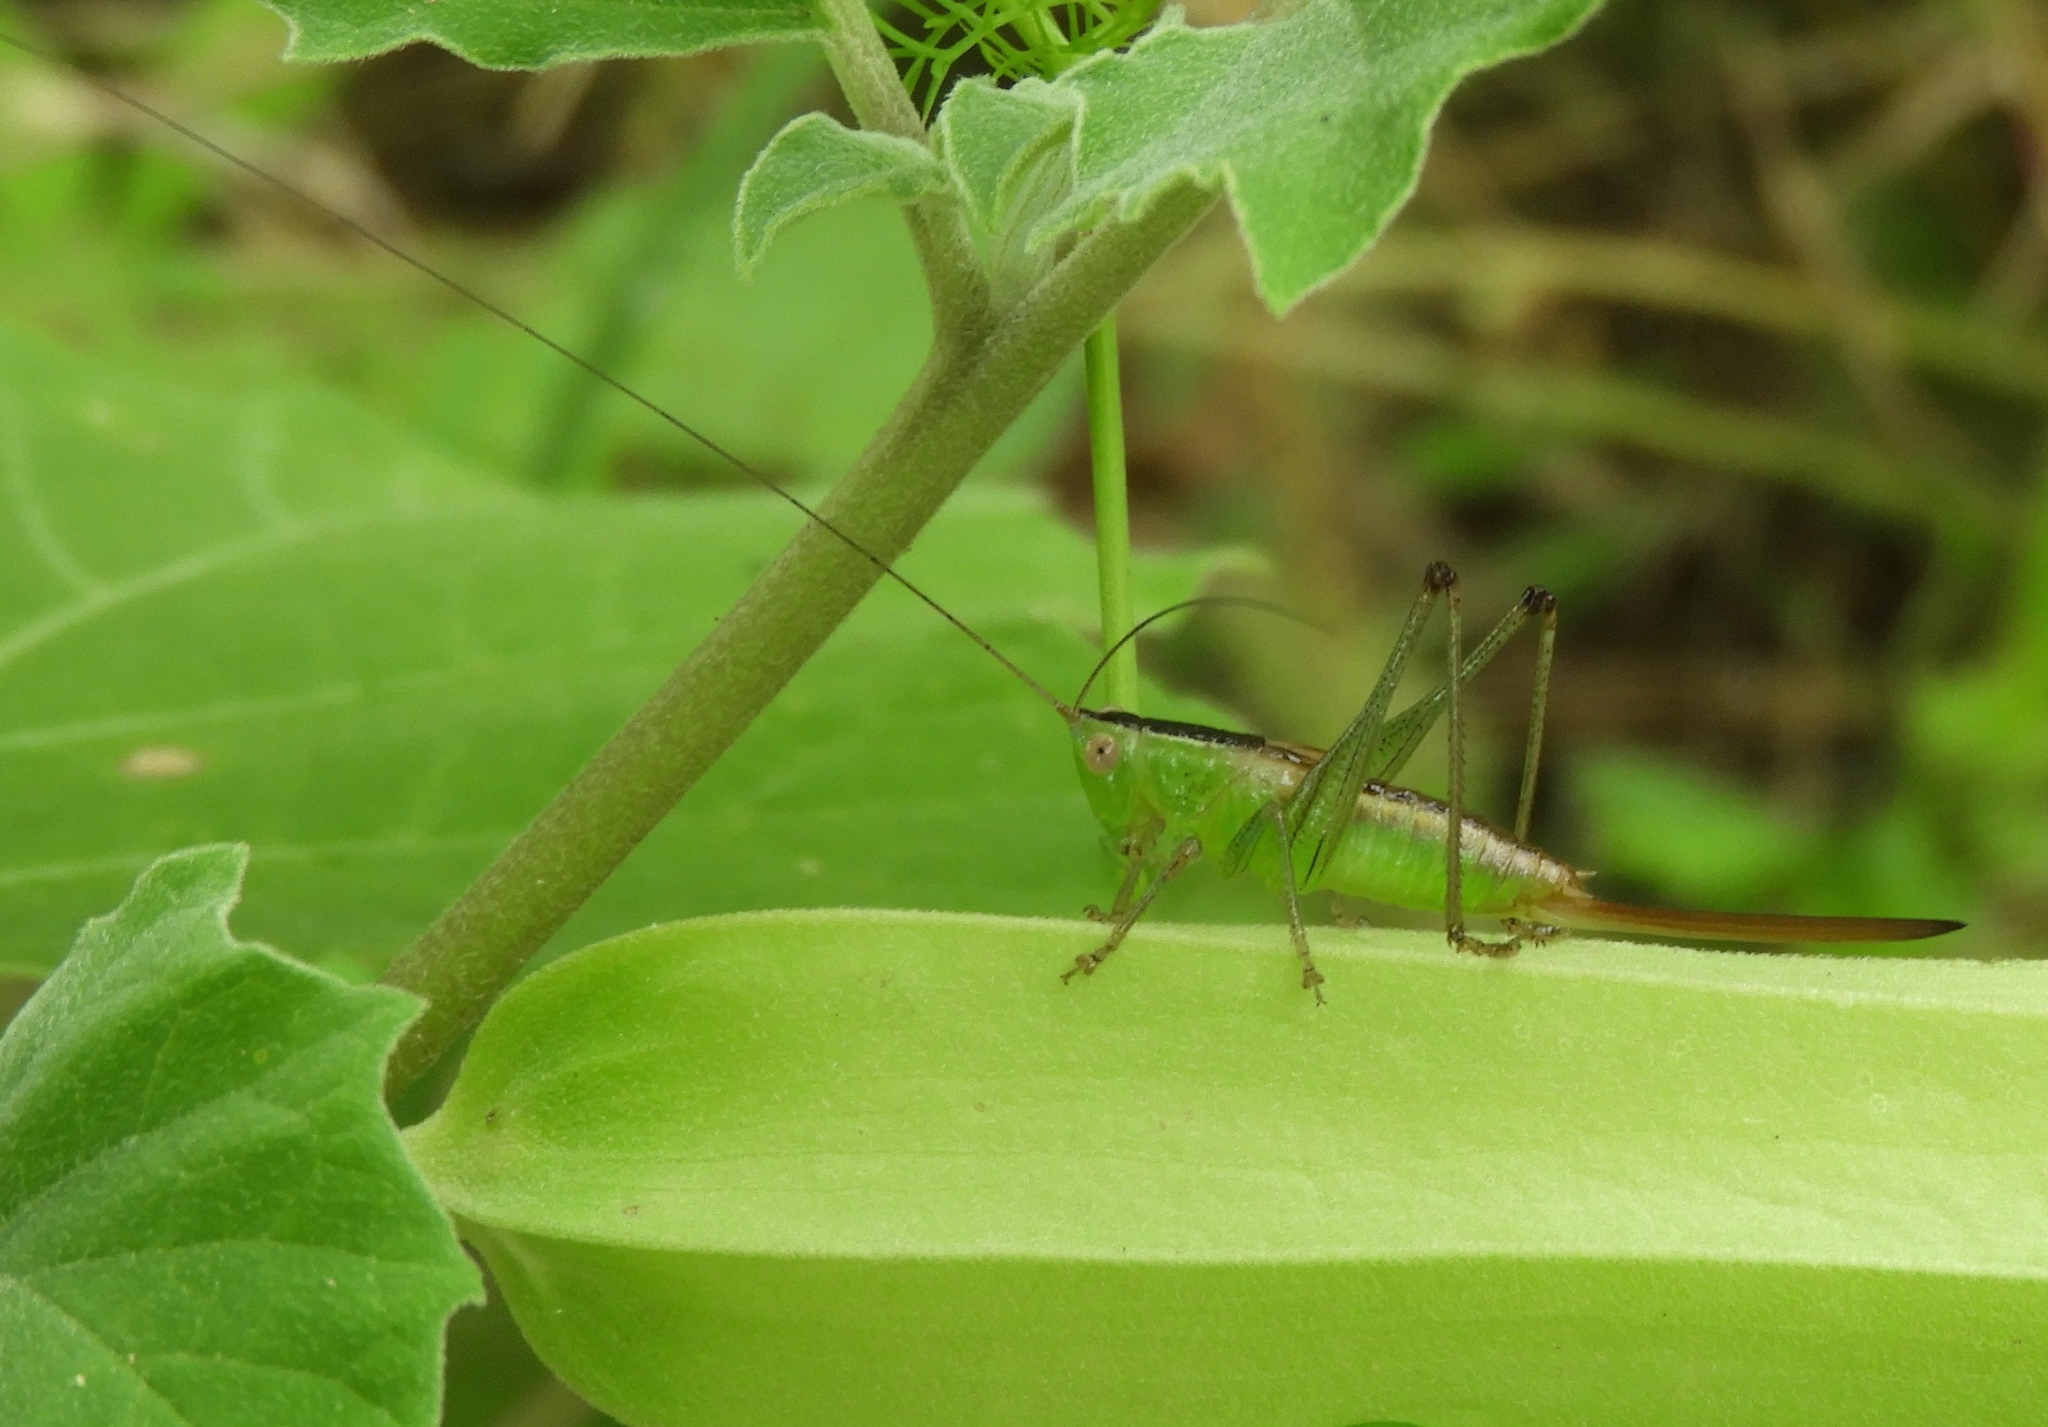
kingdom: Animalia
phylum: Arthropoda
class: Insecta
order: Orthoptera
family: Tettigoniidae
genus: Conocephalus
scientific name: Conocephalus
